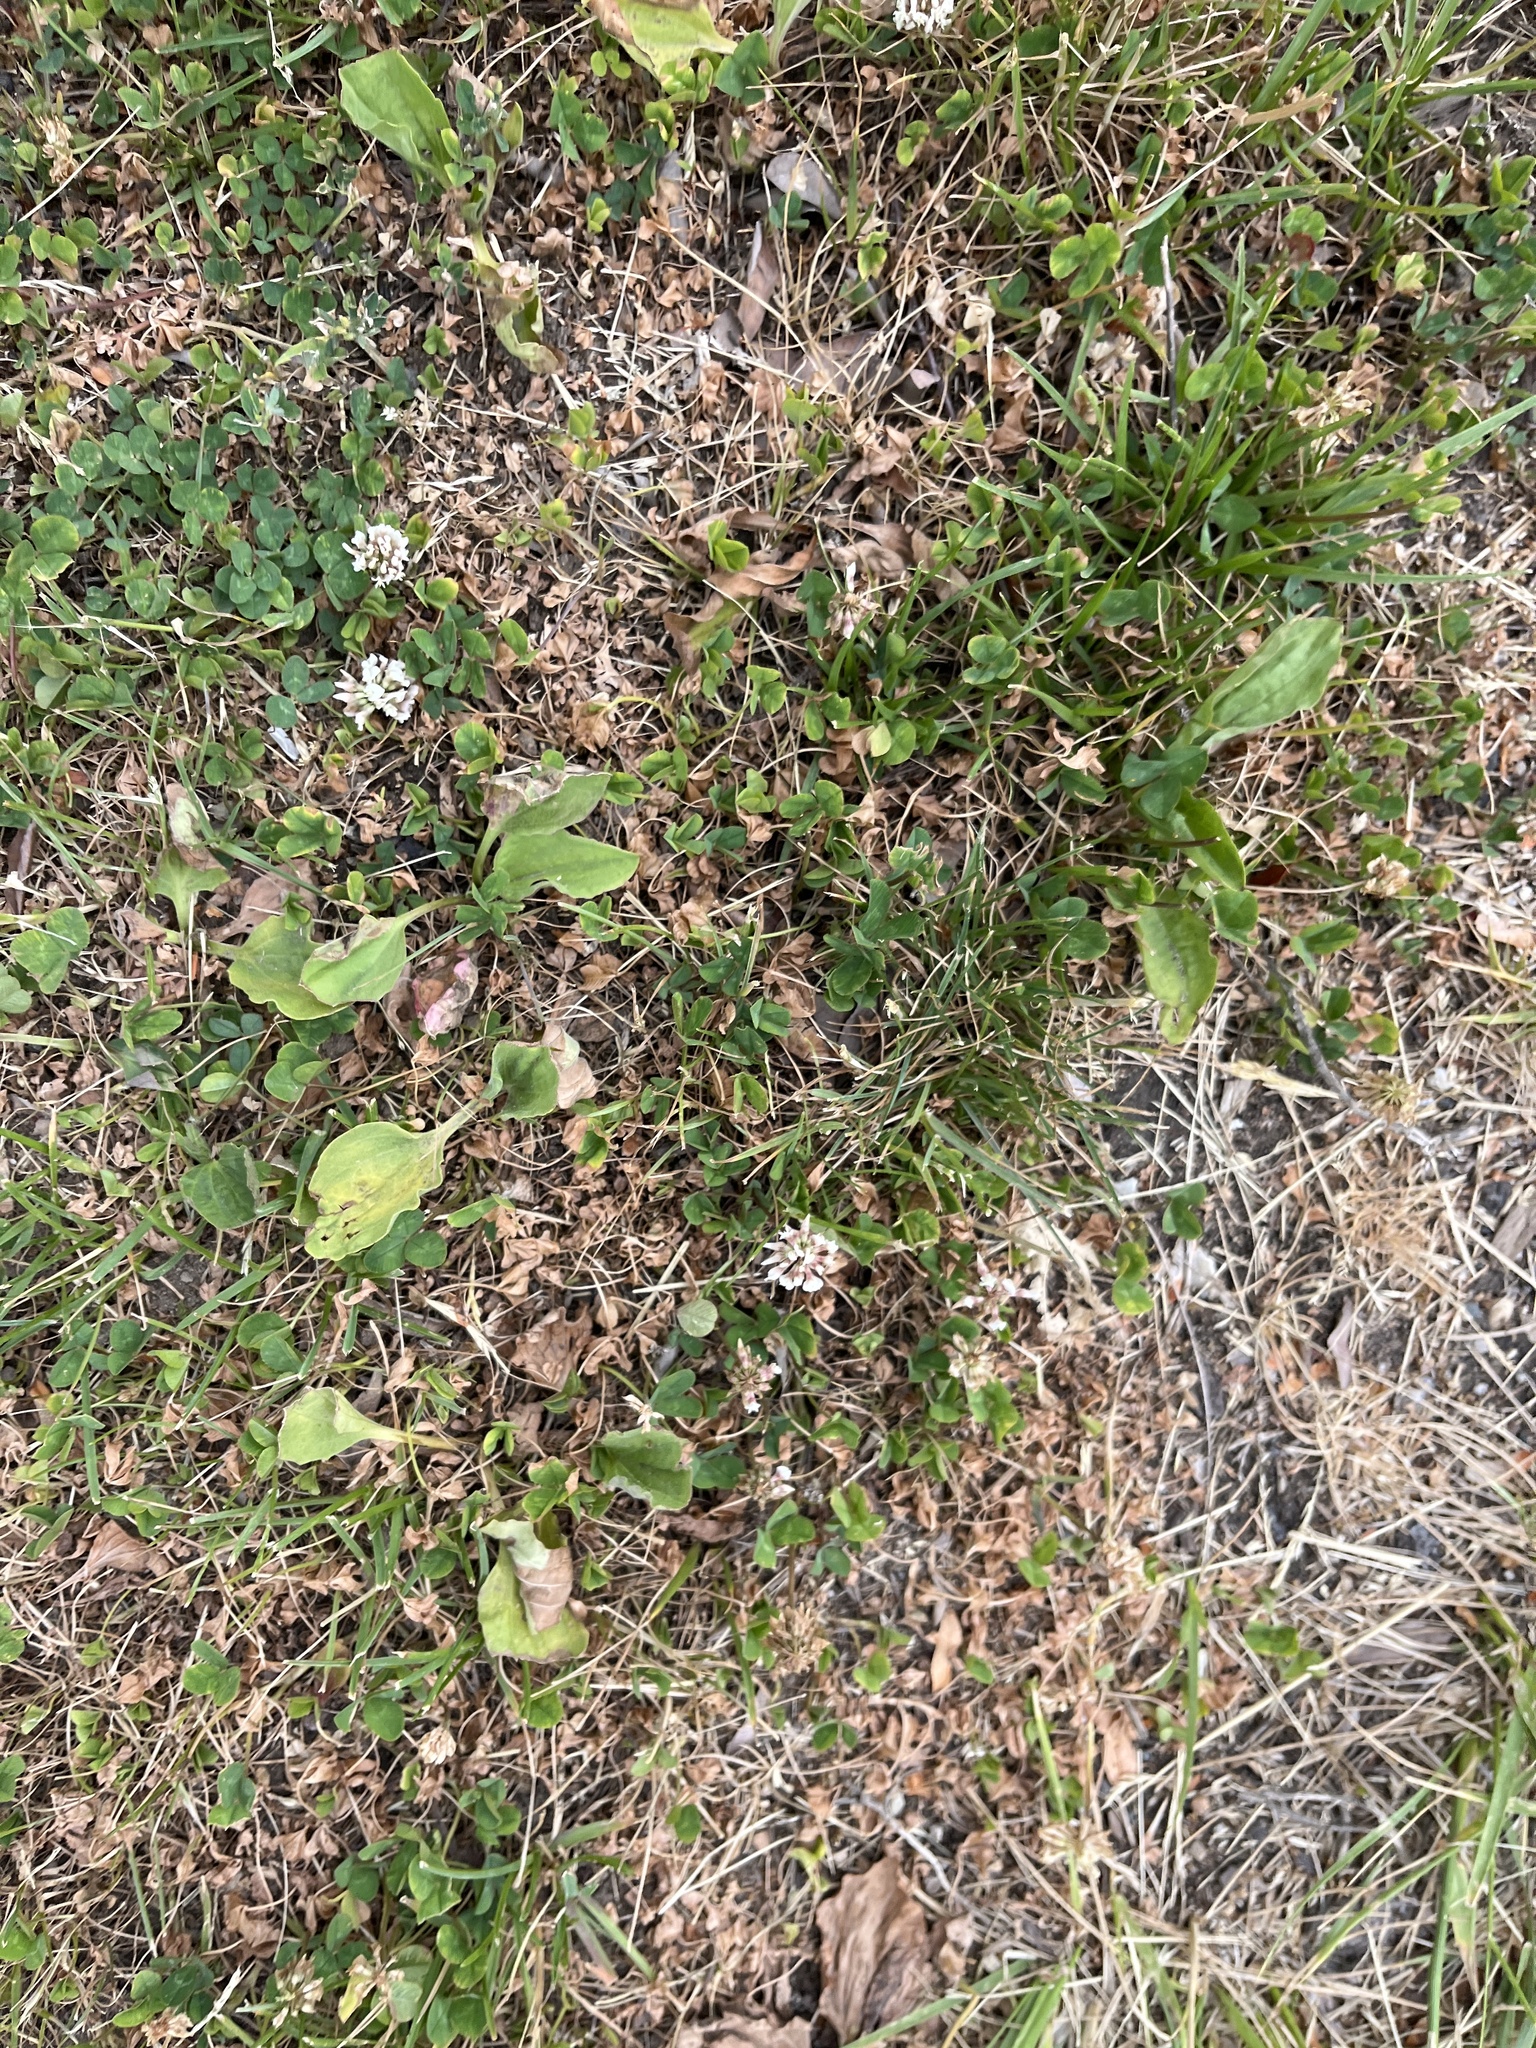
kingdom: Plantae
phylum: Tracheophyta
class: Magnoliopsida
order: Fabales
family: Fabaceae
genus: Trifolium
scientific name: Trifolium repens
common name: White clover
